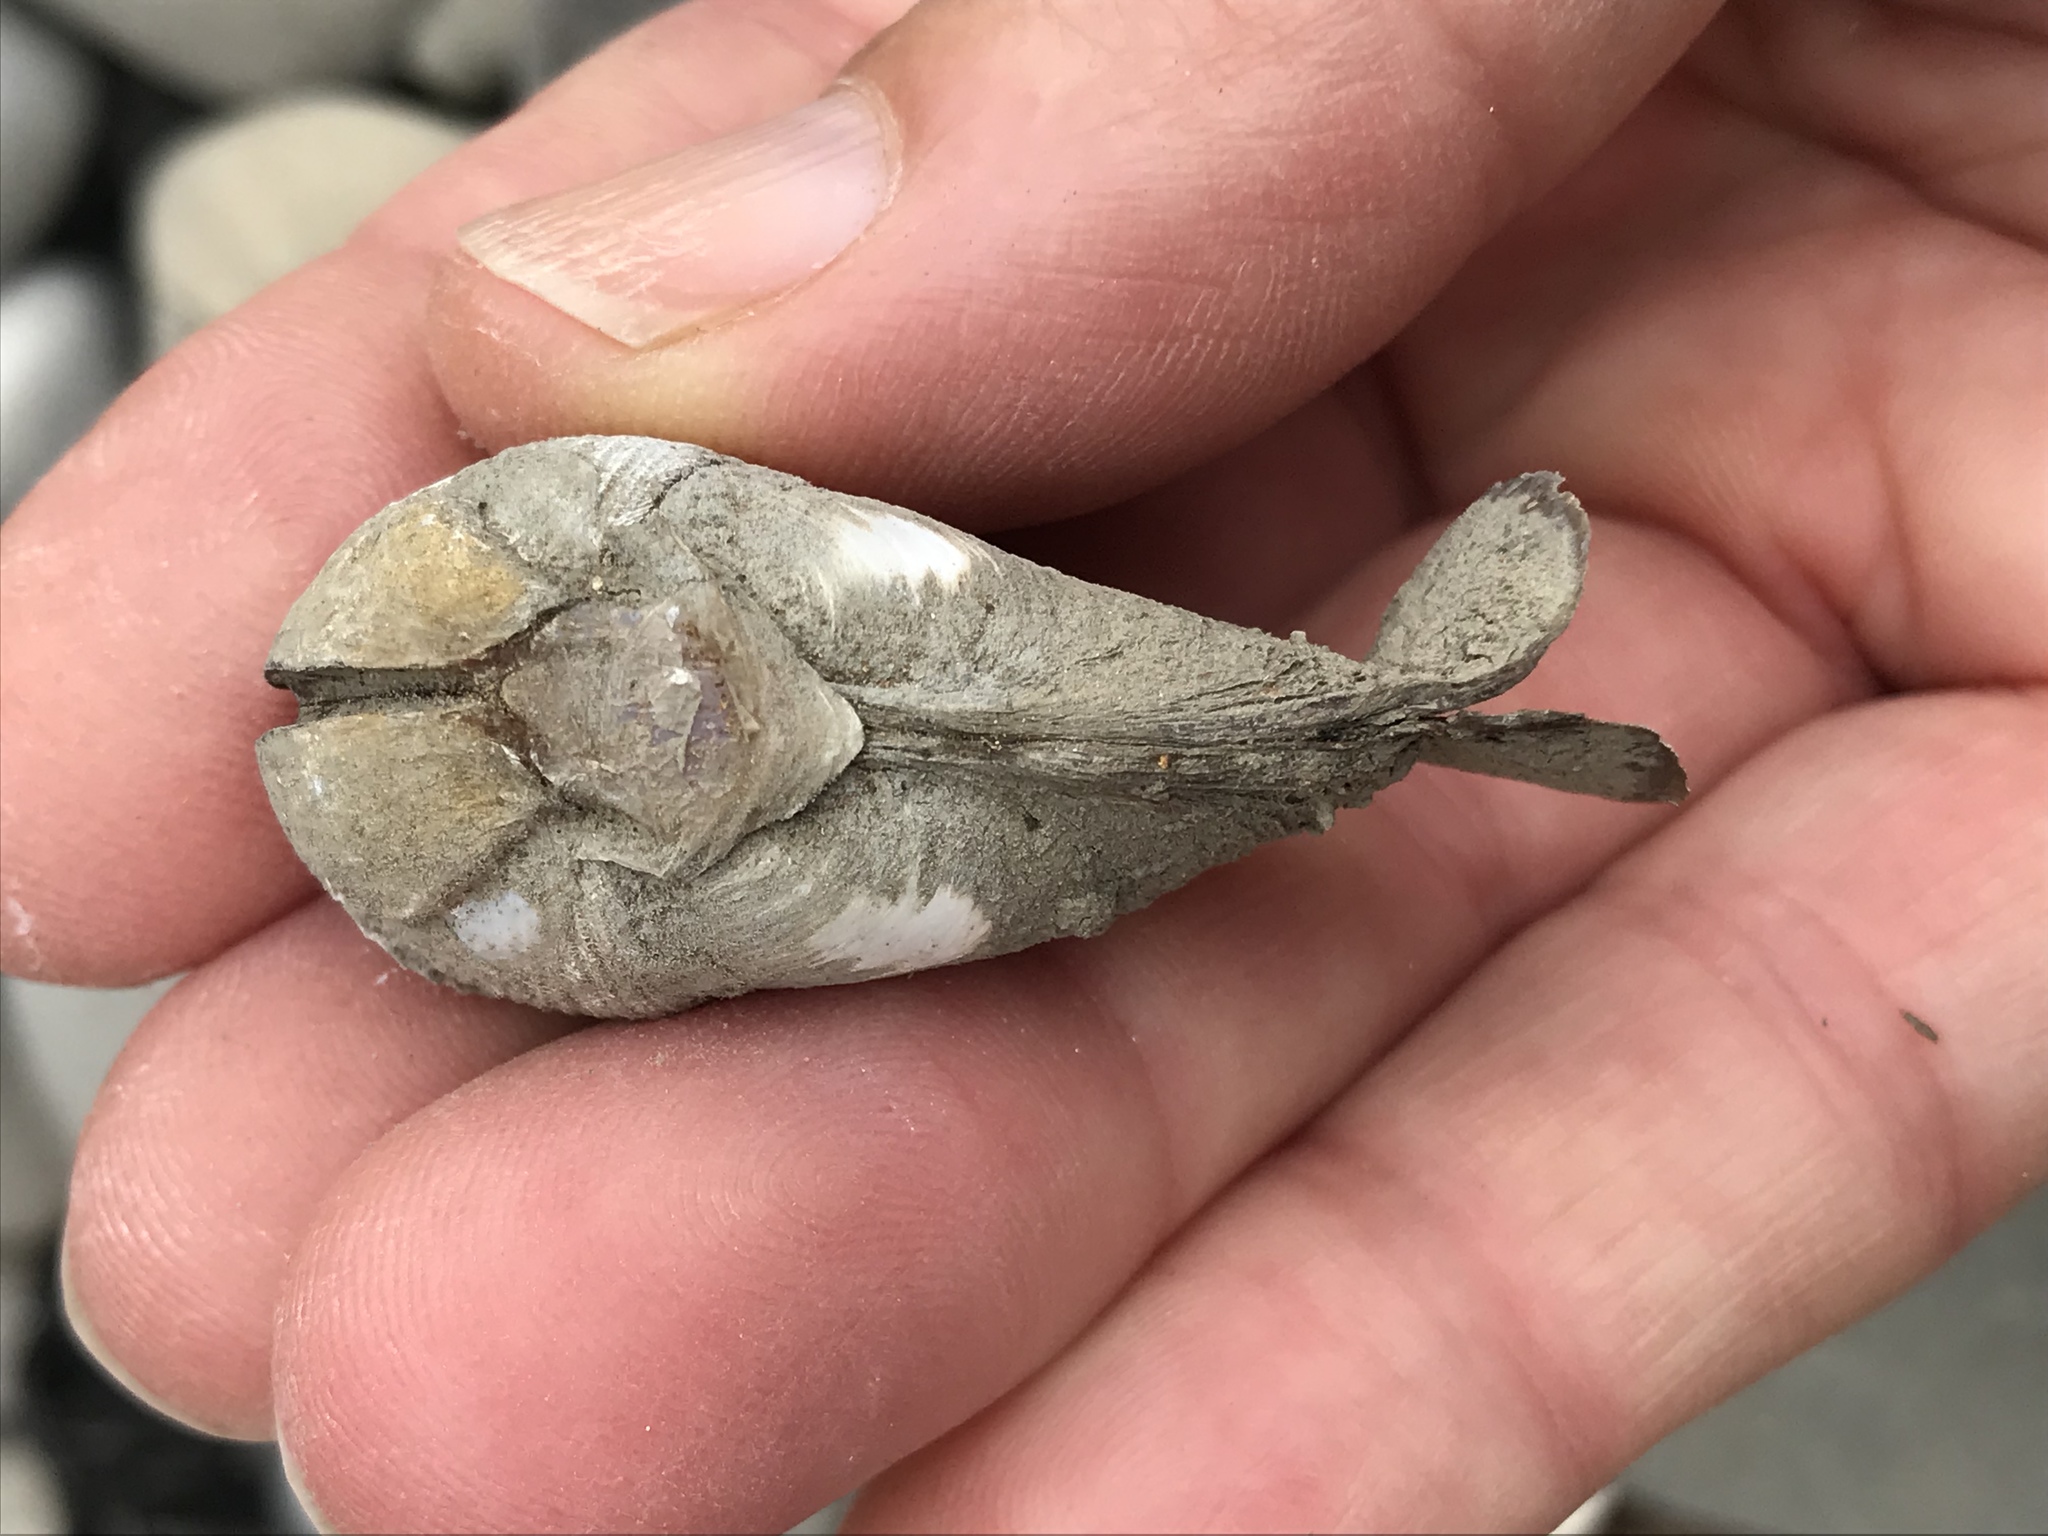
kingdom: Animalia
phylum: Mollusca
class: Bivalvia
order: Myida
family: Pholadidae
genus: Penitella
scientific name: Penitella penita
